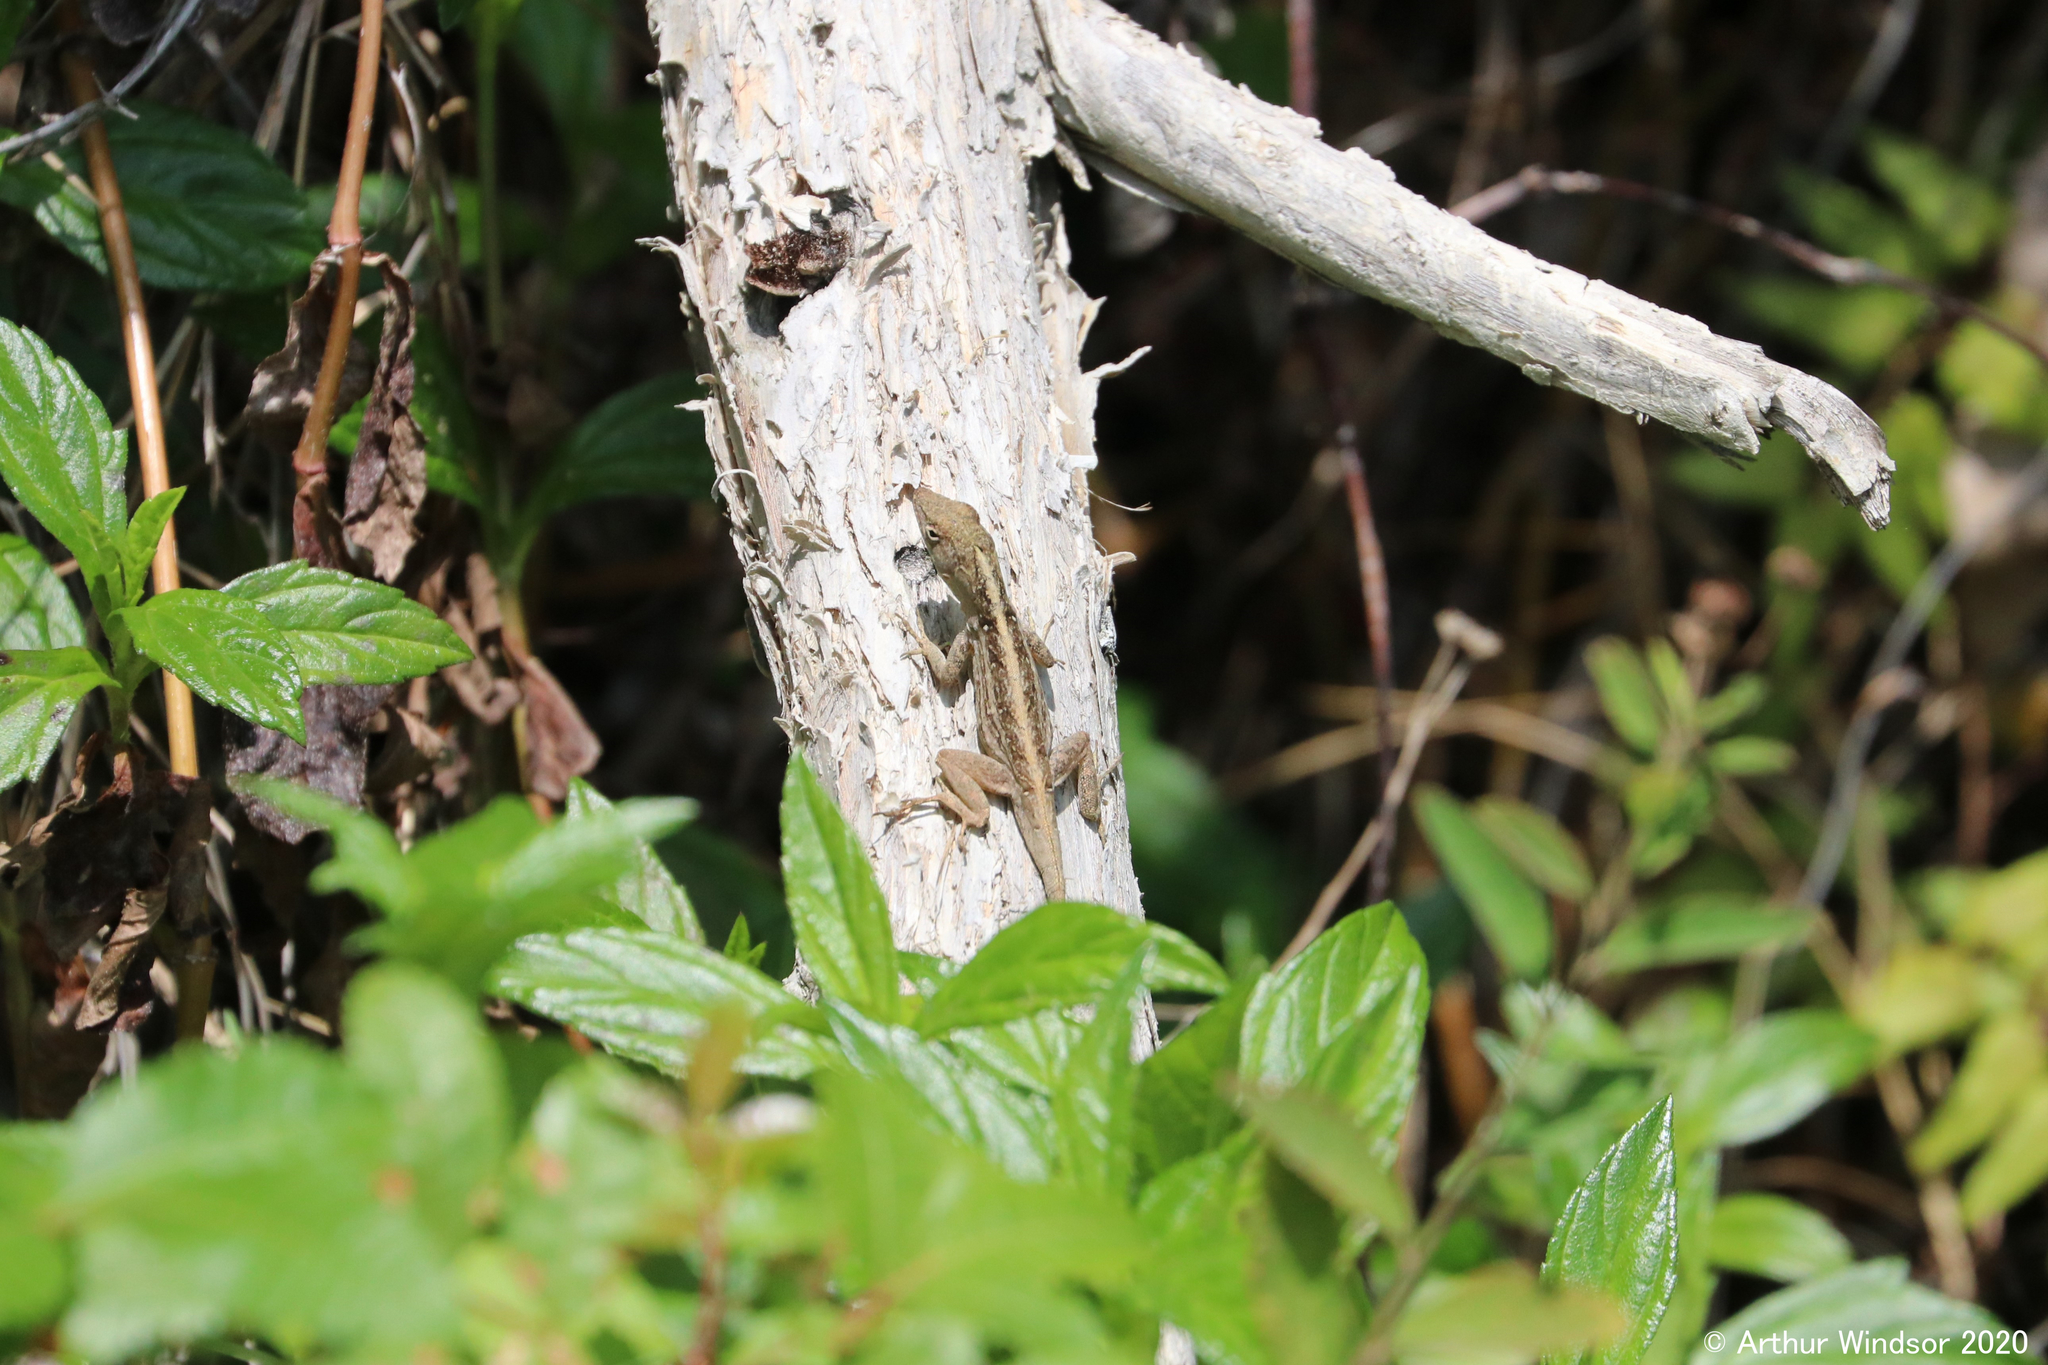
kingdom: Animalia
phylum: Chordata
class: Squamata
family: Dactyloidae
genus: Anolis
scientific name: Anolis sagrei
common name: Brown anole
